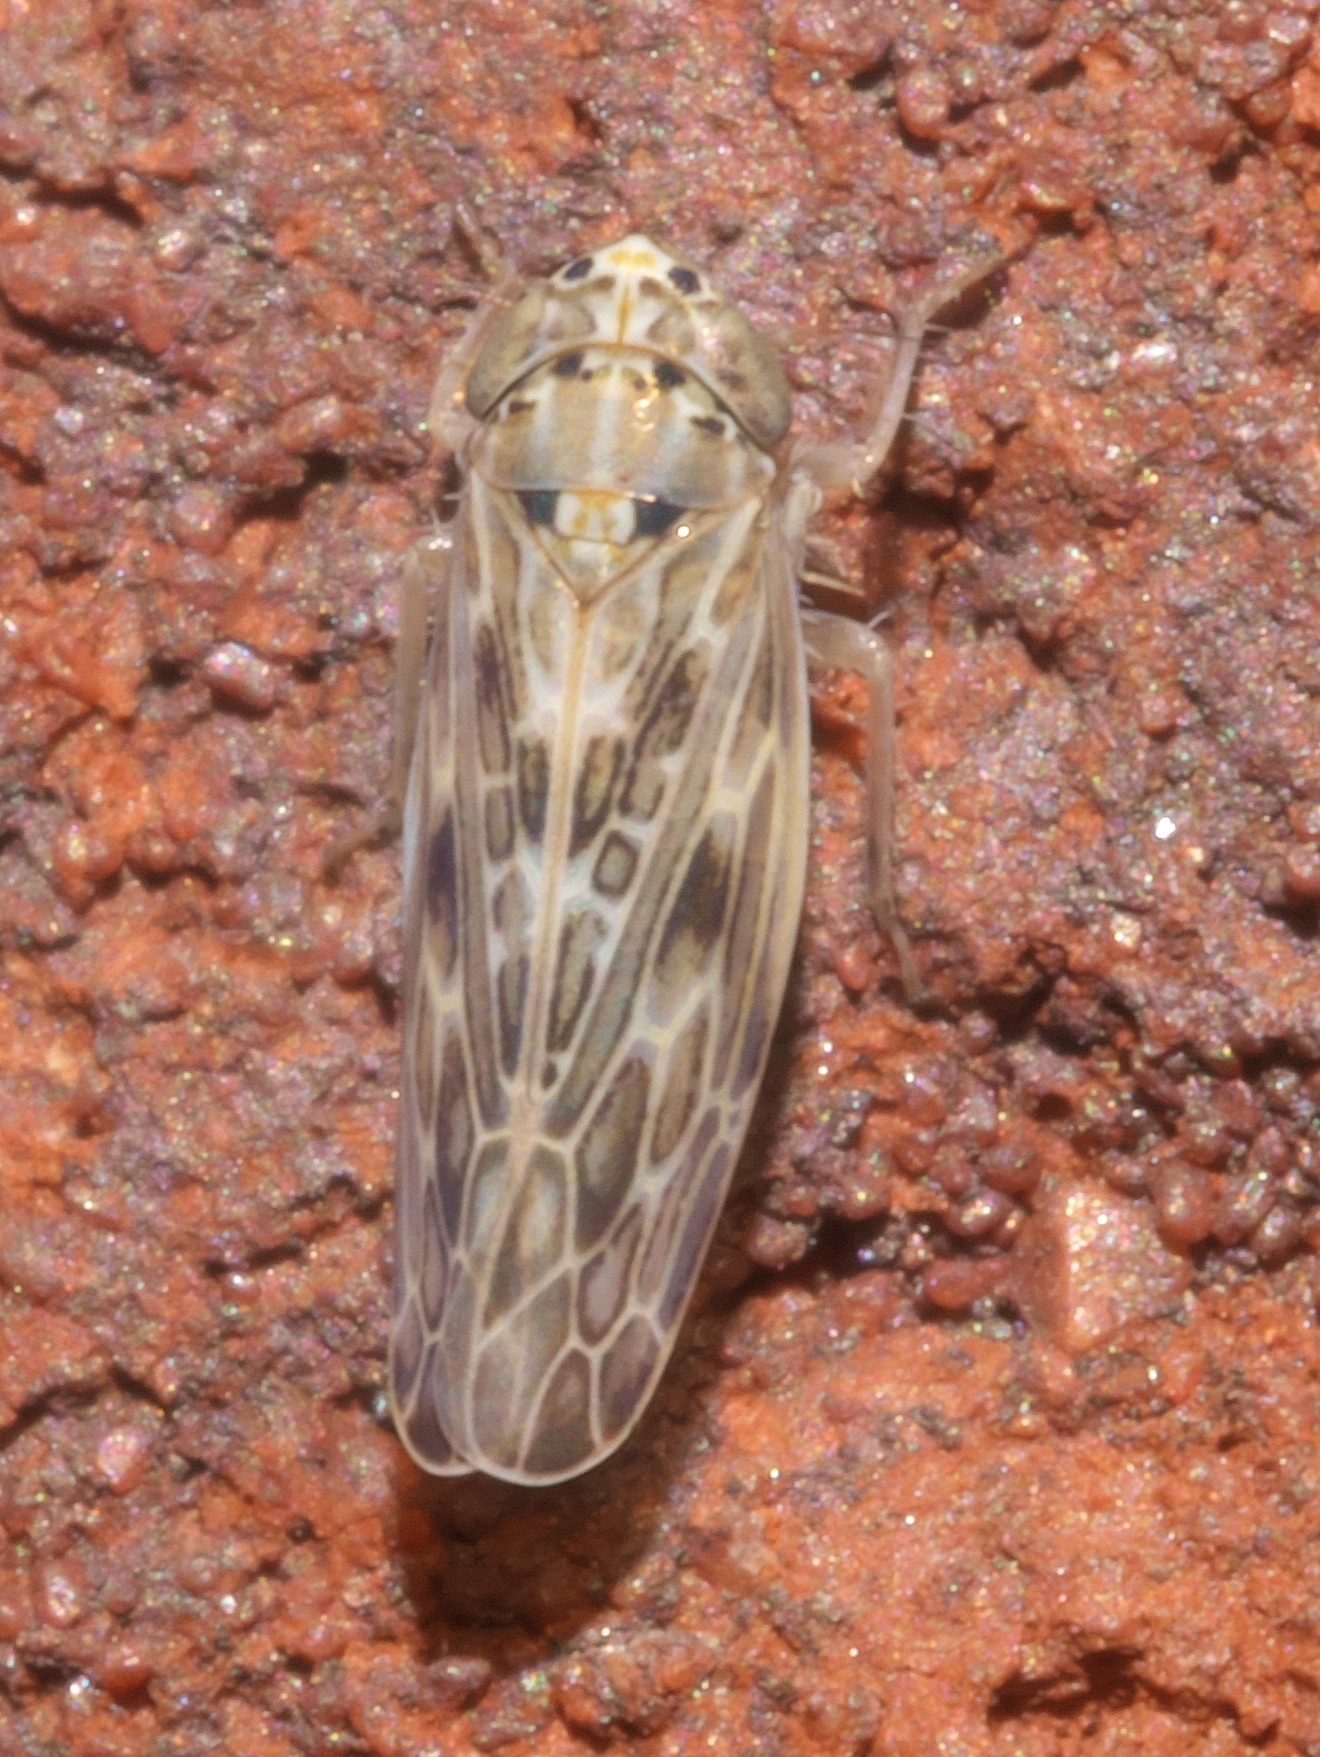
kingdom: Animalia
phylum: Arthropoda
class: Insecta
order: Hemiptera
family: Cicadellidae
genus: Endria
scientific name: Endria inimicus
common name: Painted leafhopper
